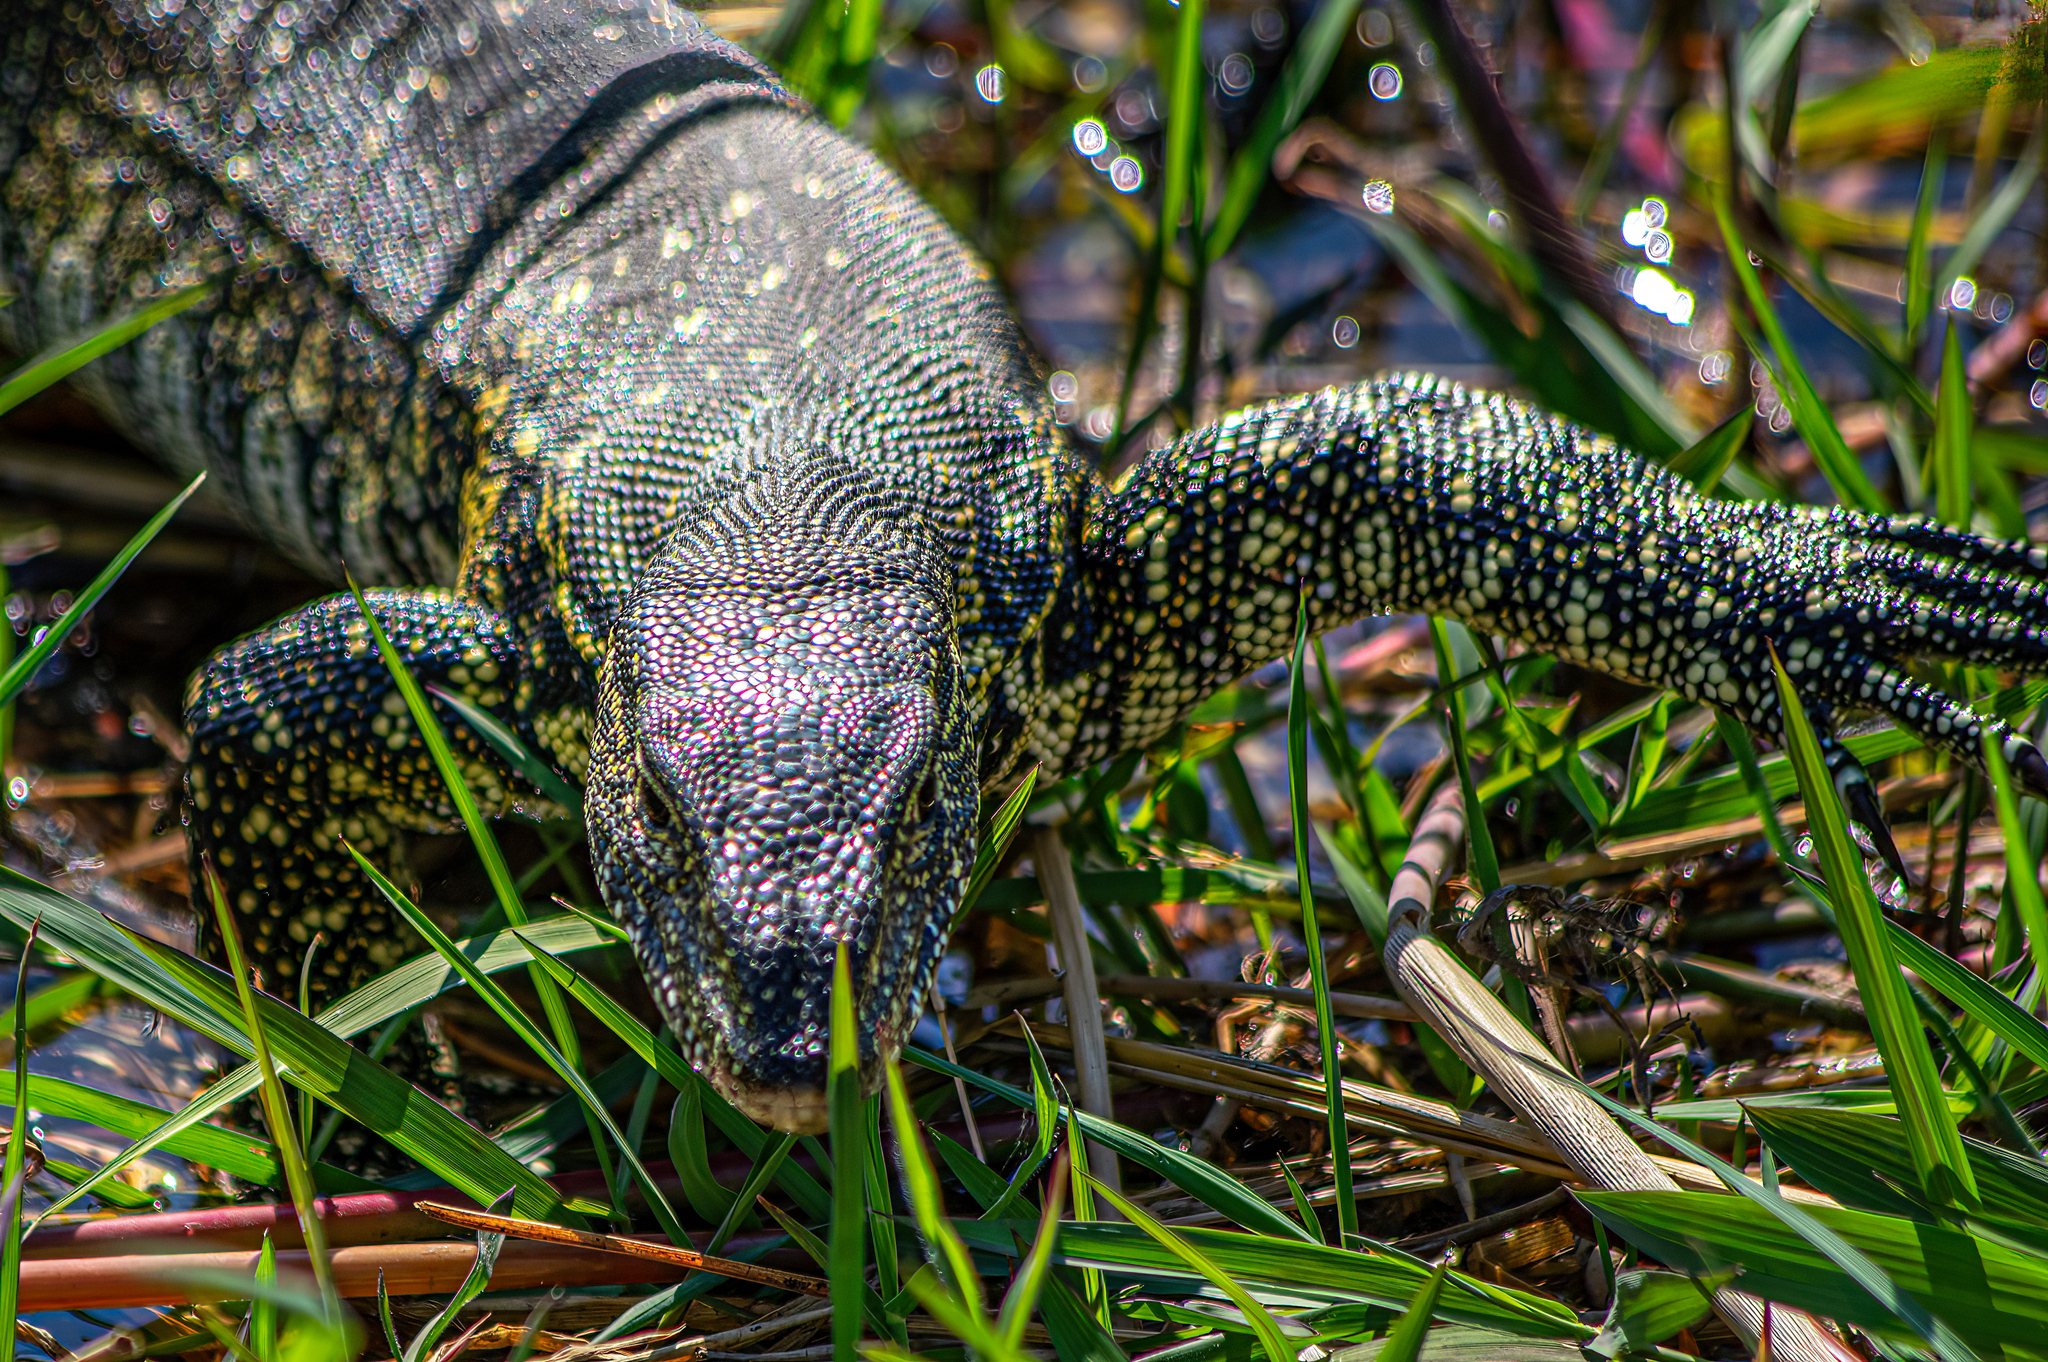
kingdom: Animalia
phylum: Chordata
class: Squamata
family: Varanidae
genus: Varanus
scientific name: Varanus niloticus
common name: Nile monitor
